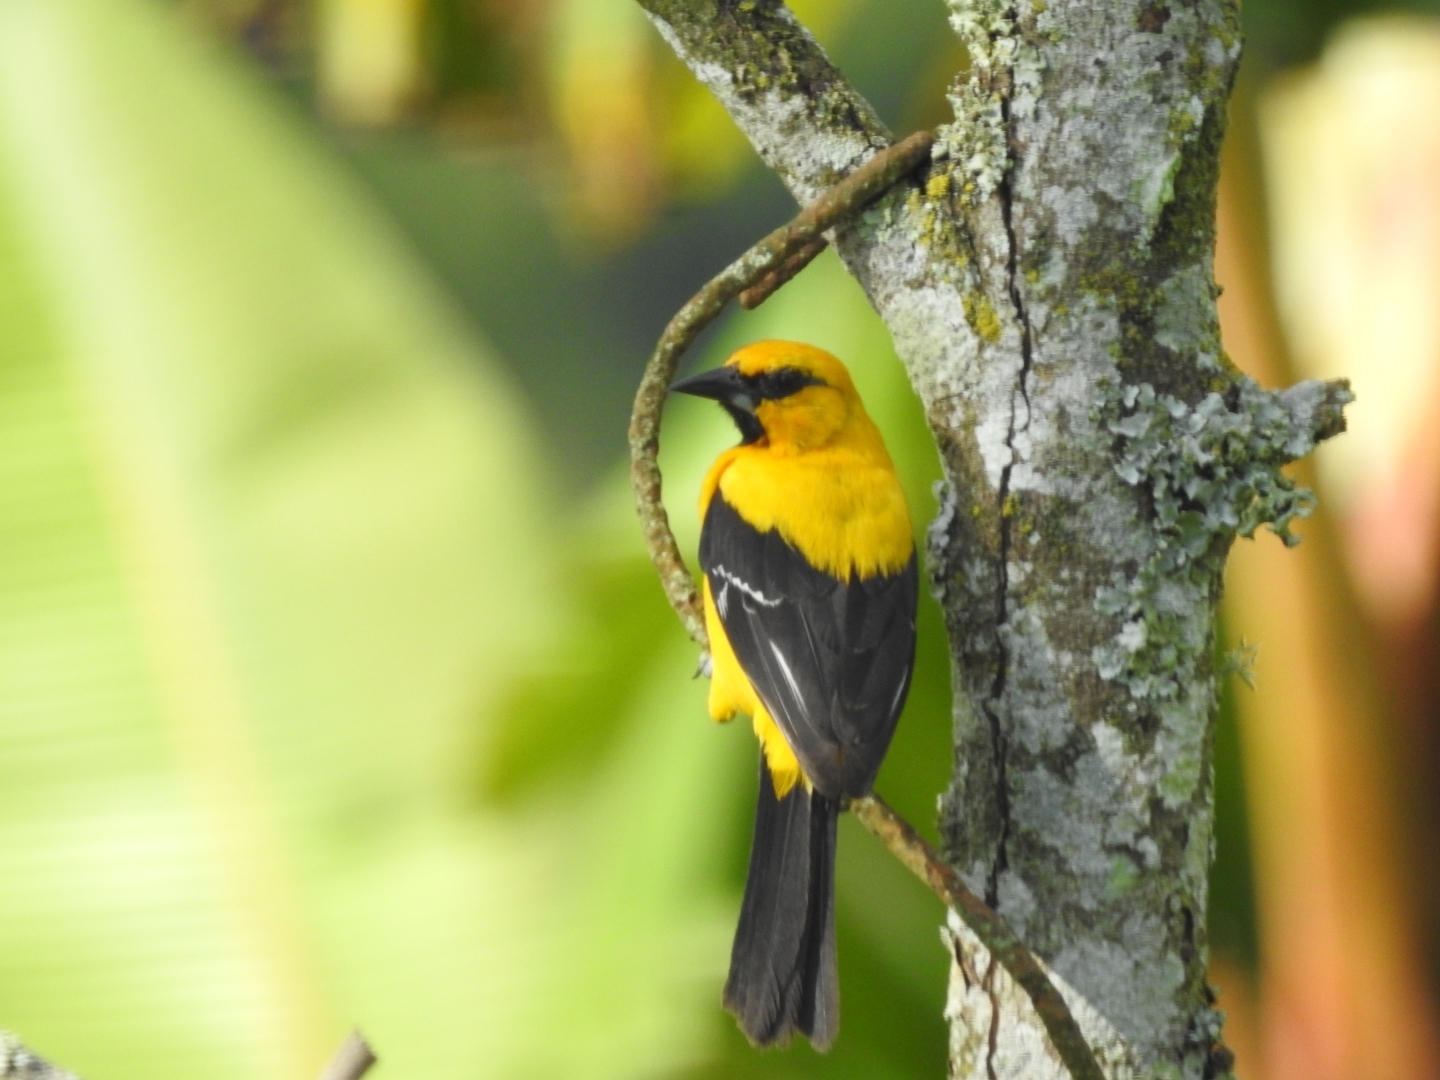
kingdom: Animalia
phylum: Chordata
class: Aves
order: Passeriformes
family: Icteridae
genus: Icterus
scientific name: Icterus nigrogularis
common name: Yellow oriole
